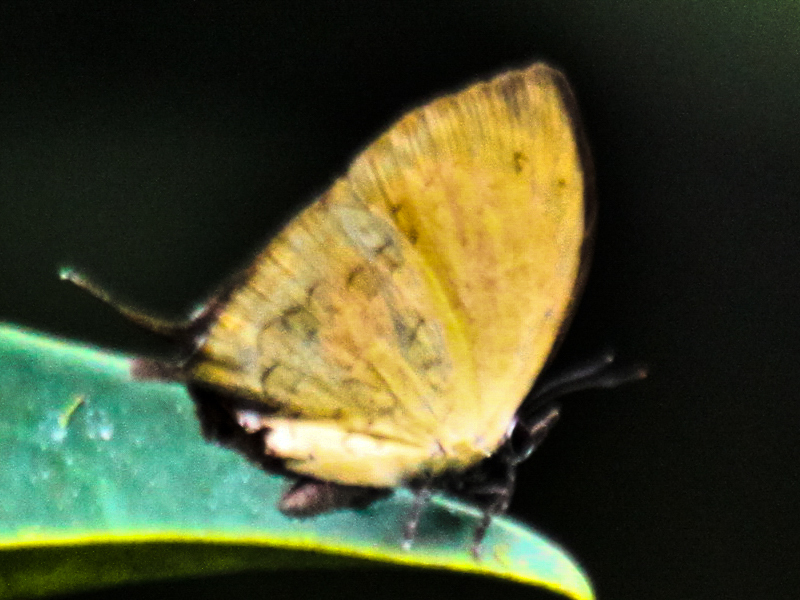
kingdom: Animalia
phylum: Arthropoda
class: Insecta
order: Lepidoptera
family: Lycaenidae
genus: Yasoda
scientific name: Yasoda tripunctata
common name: Branded yamfly
